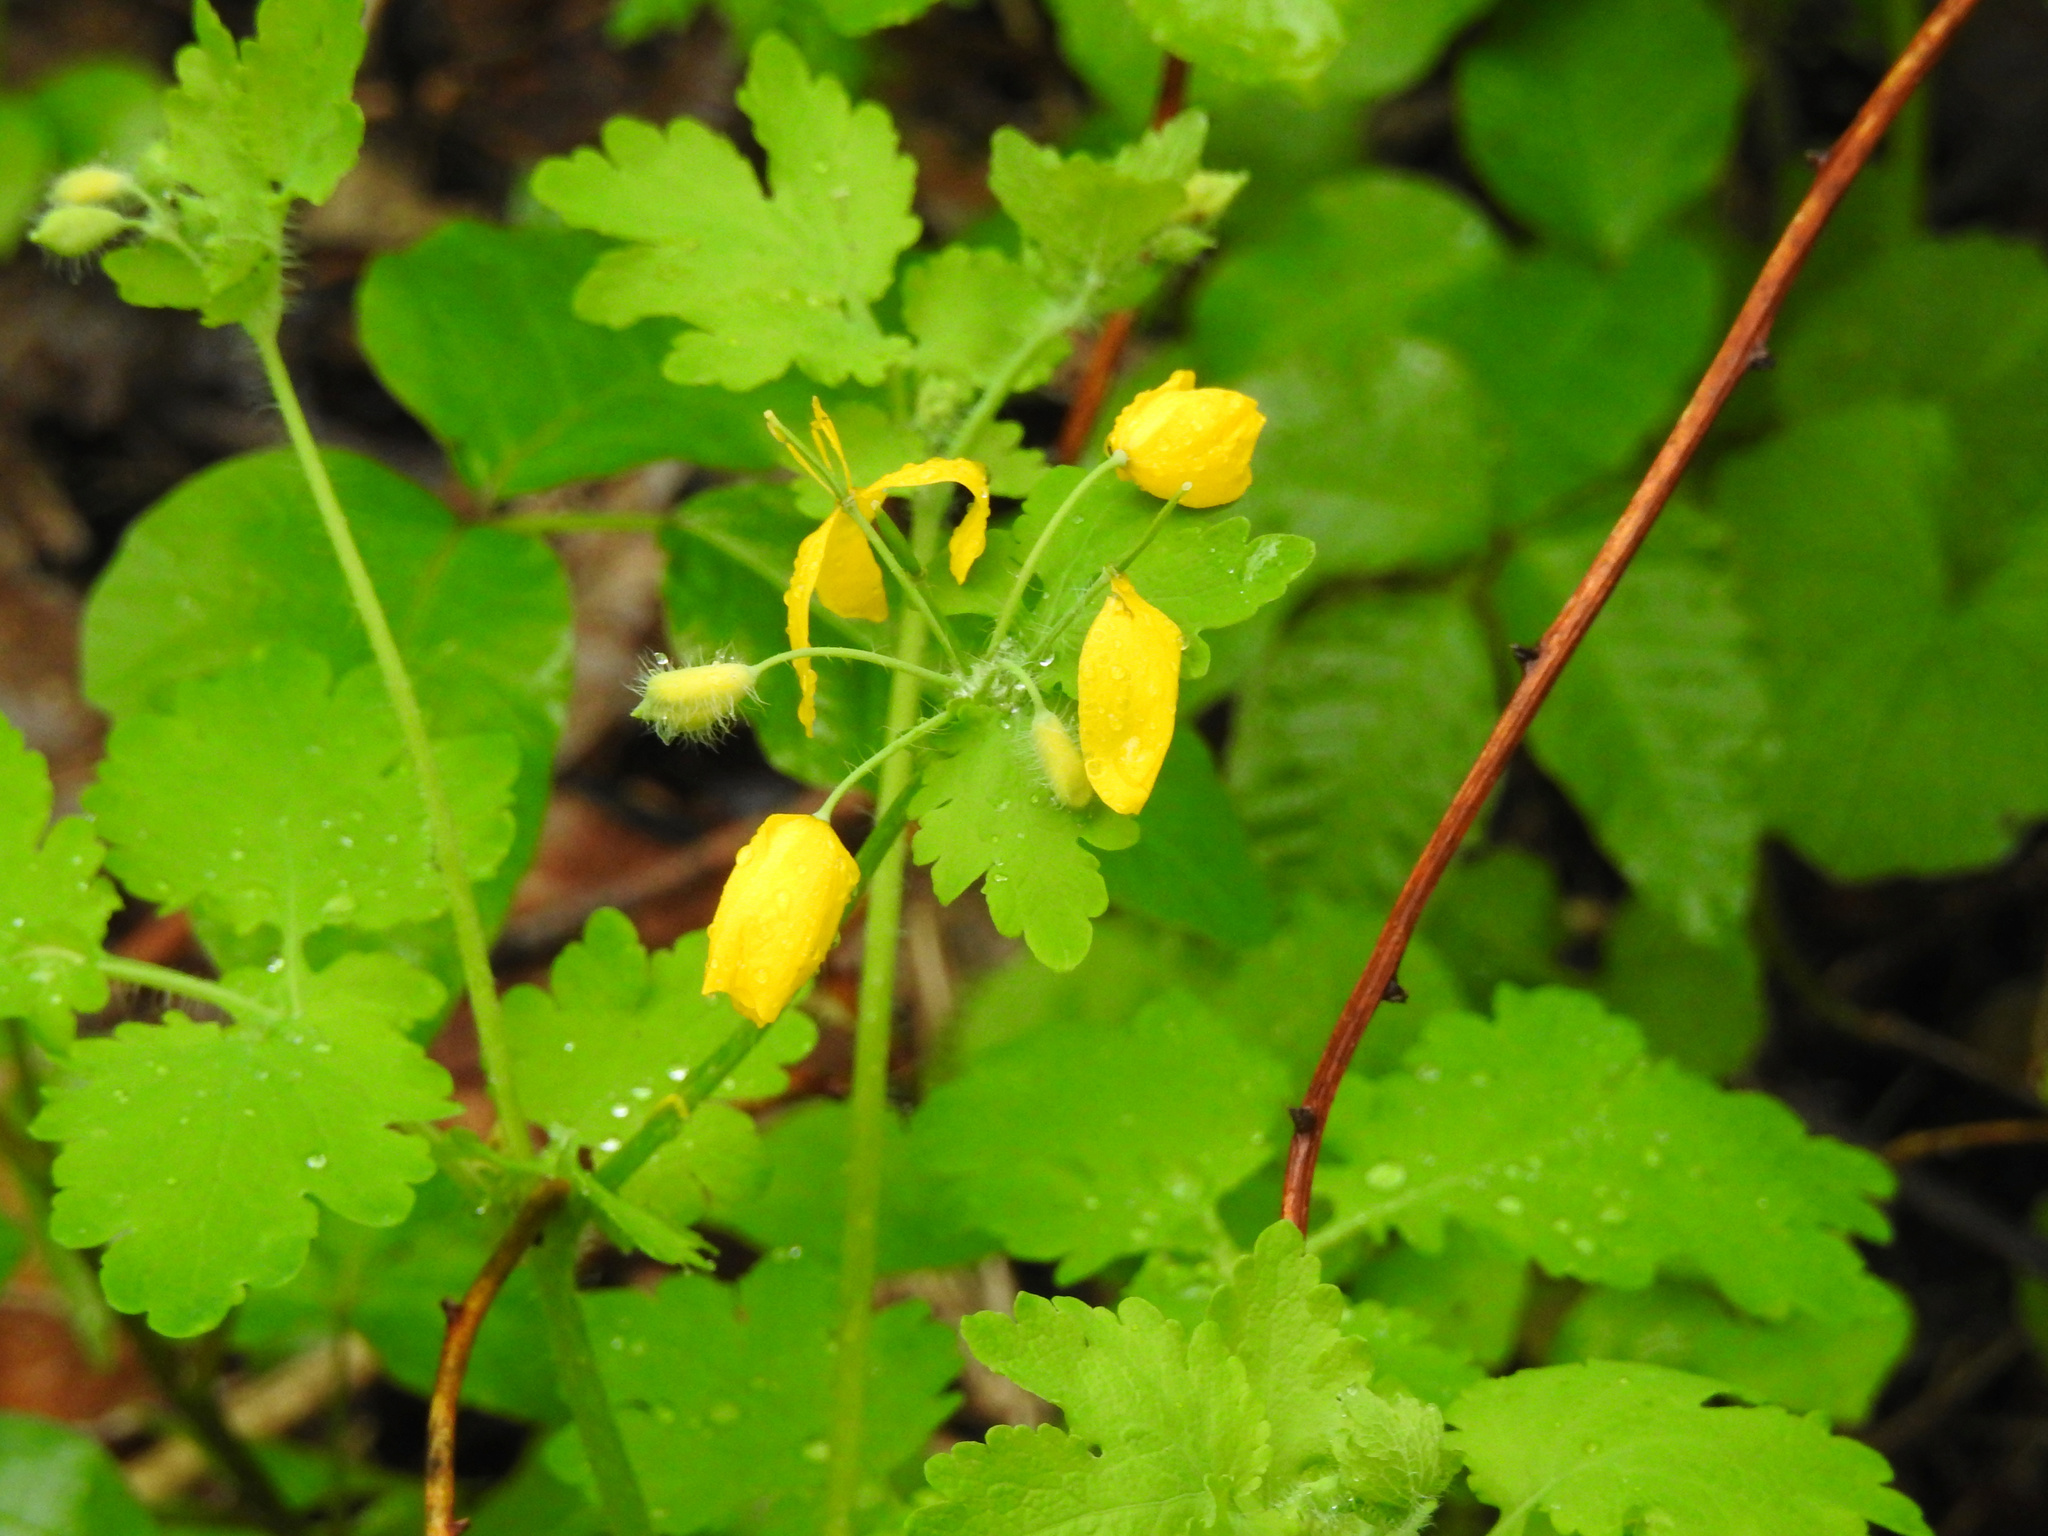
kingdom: Plantae
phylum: Tracheophyta
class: Magnoliopsida
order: Ranunculales
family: Papaveraceae
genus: Chelidonium
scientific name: Chelidonium majus
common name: Greater celandine
